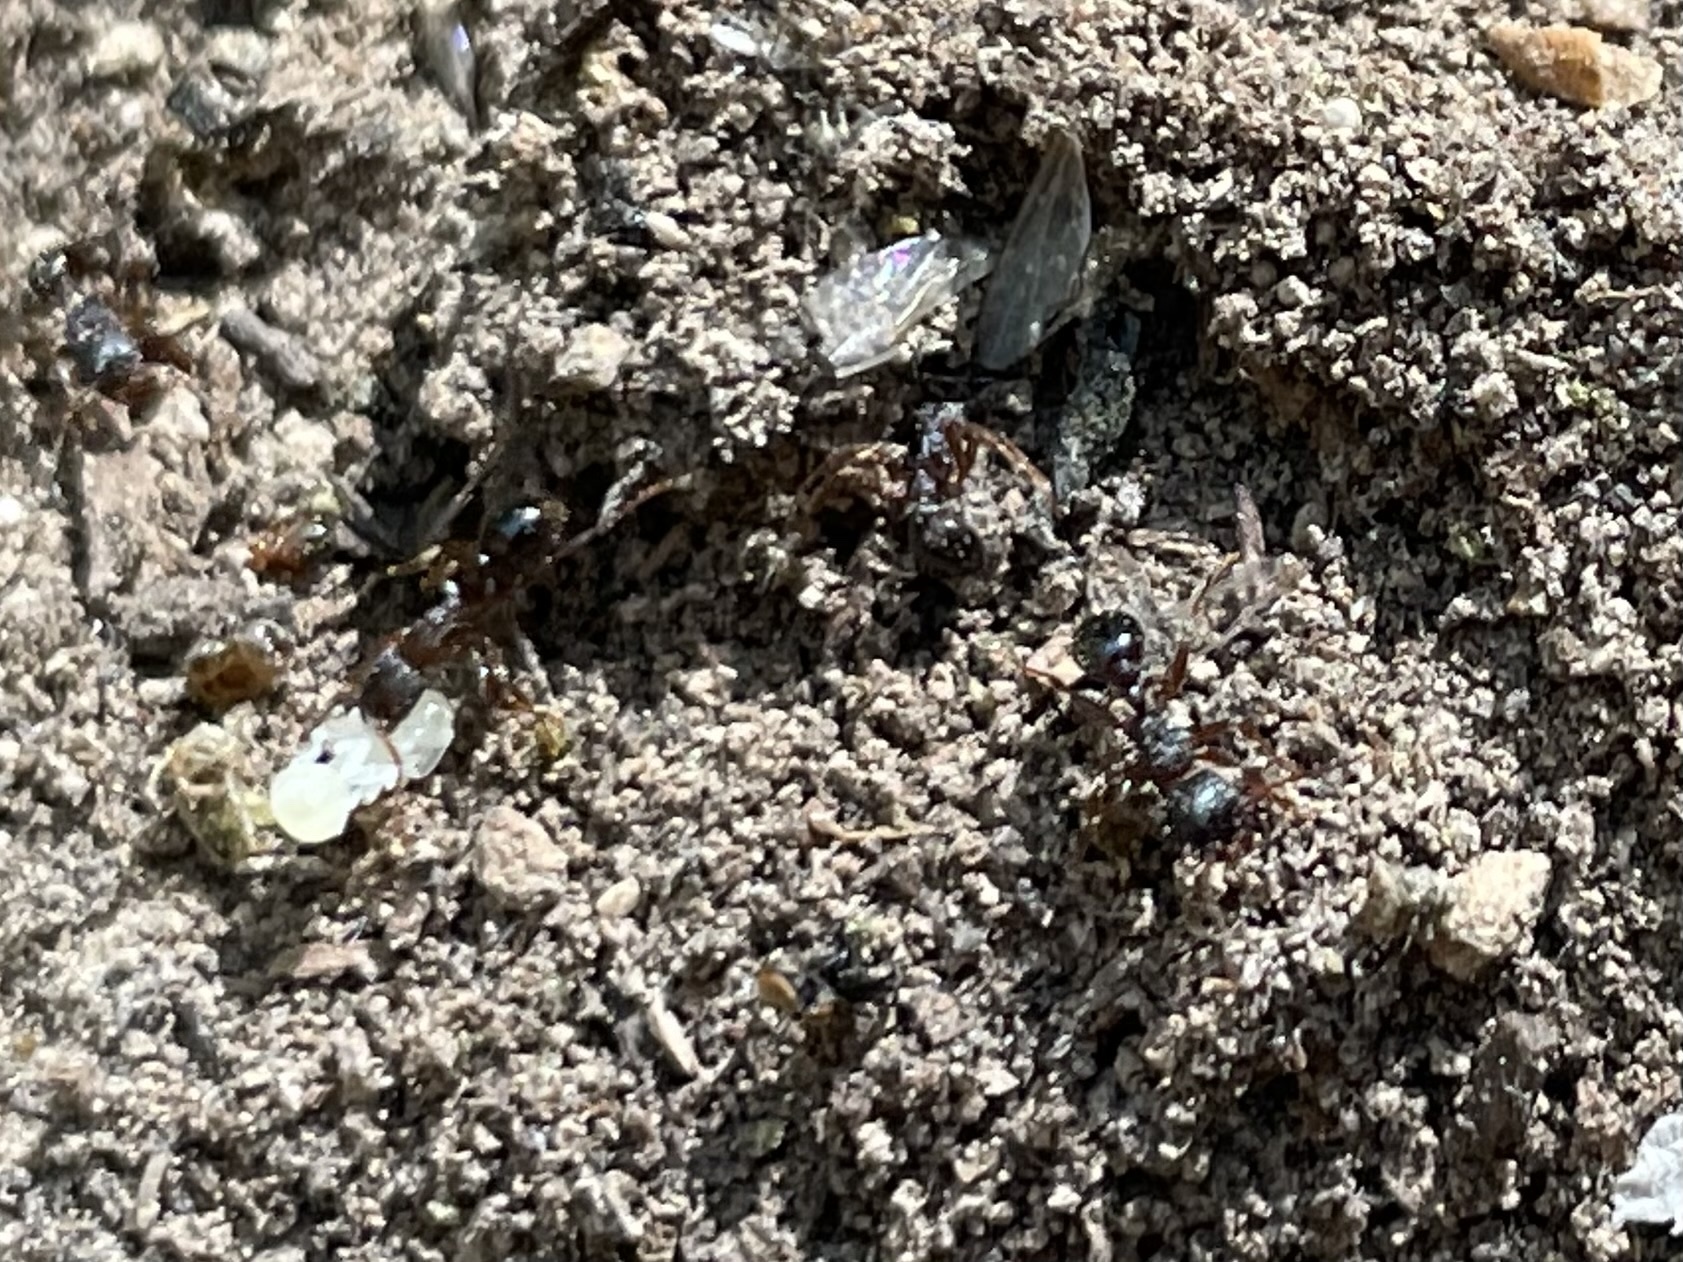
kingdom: Animalia
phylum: Arthropoda
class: Insecta
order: Hymenoptera
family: Formicidae
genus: Tetramorium
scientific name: Tetramorium immigrans
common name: Pavement ant
